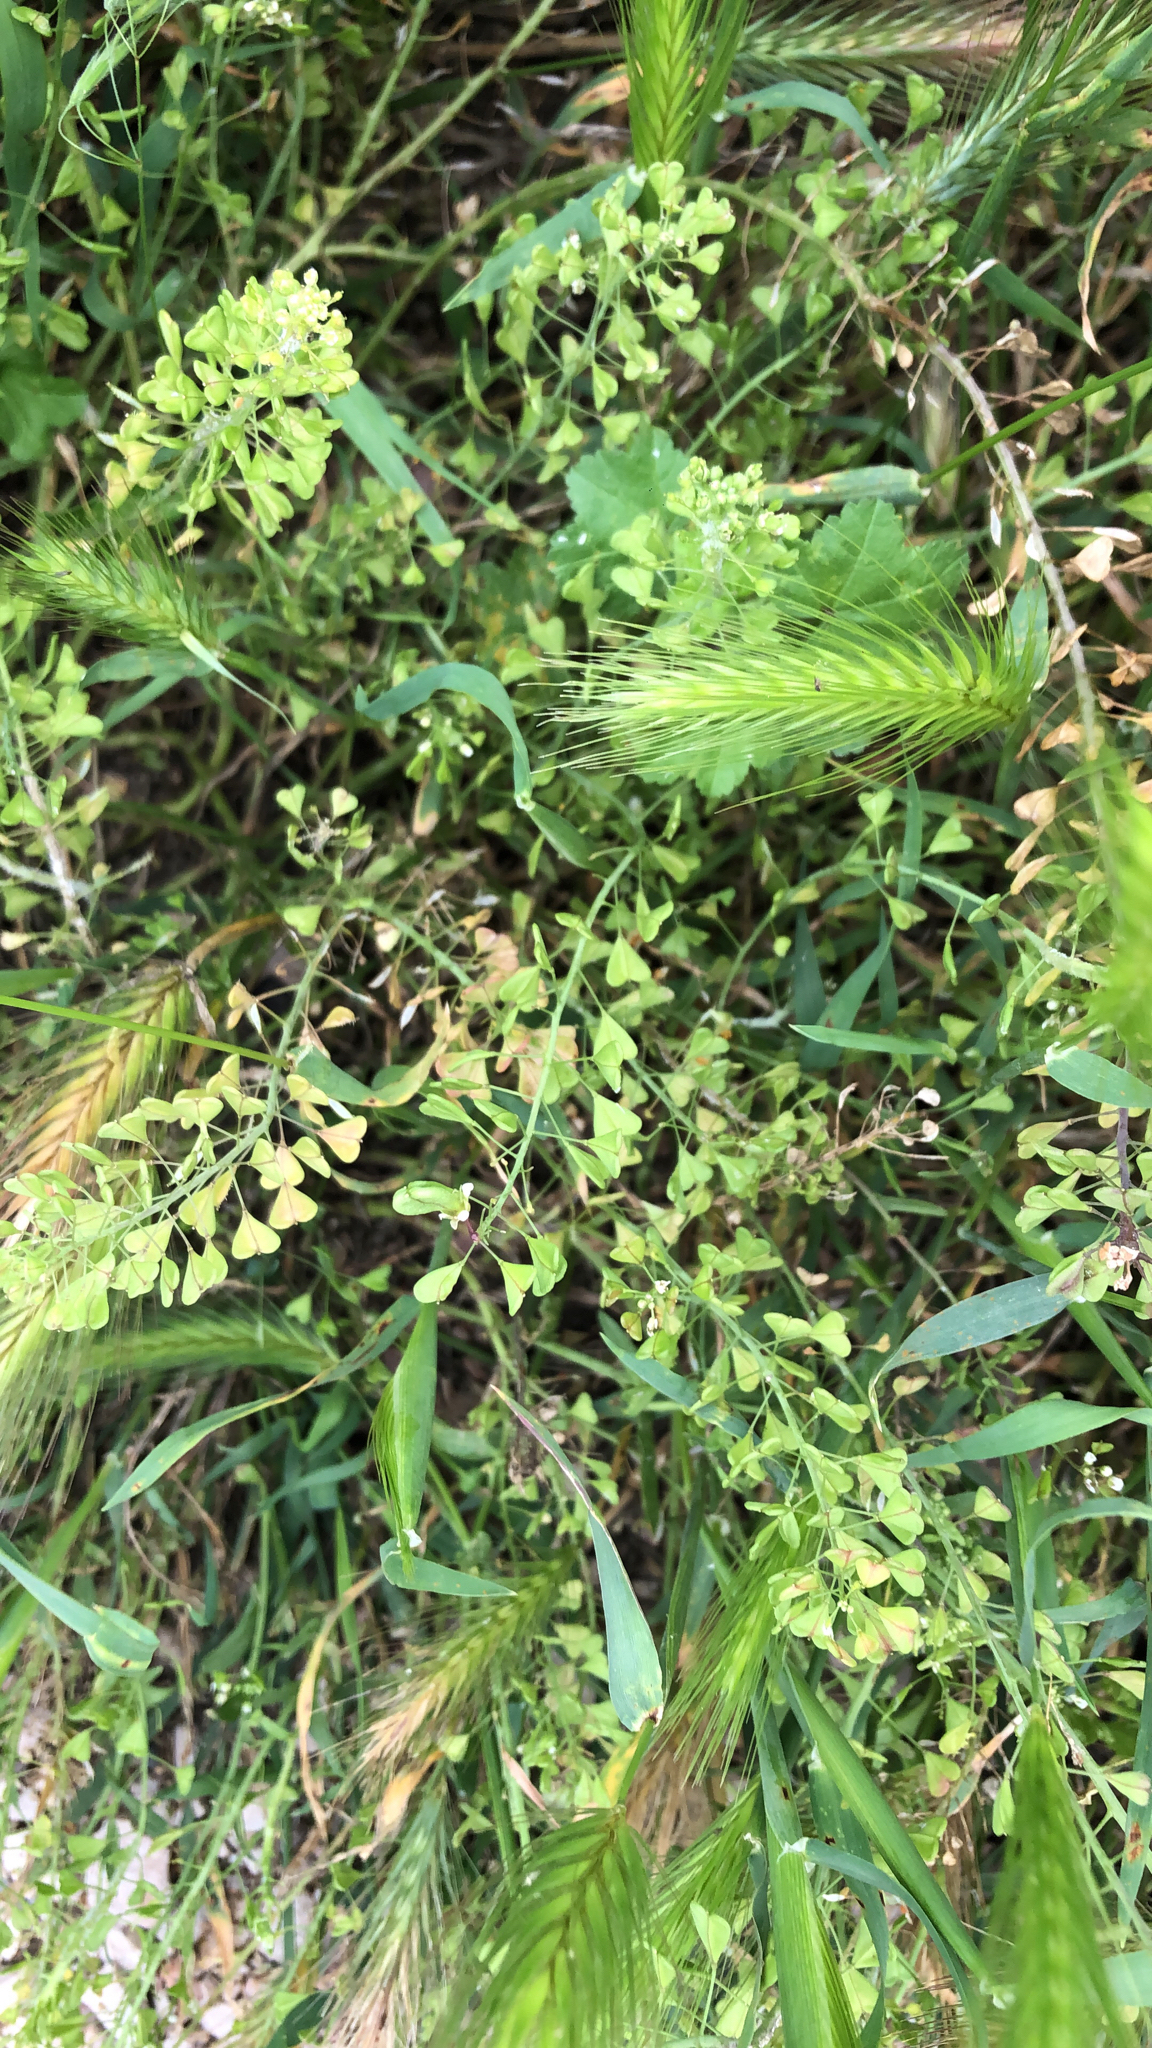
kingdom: Plantae
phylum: Tracheophyta
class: Magnoliopsida
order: Brassicales
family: Brassicaceae
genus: Capsella
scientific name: Capsella bursa-pastoris
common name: Shepherd's purse
